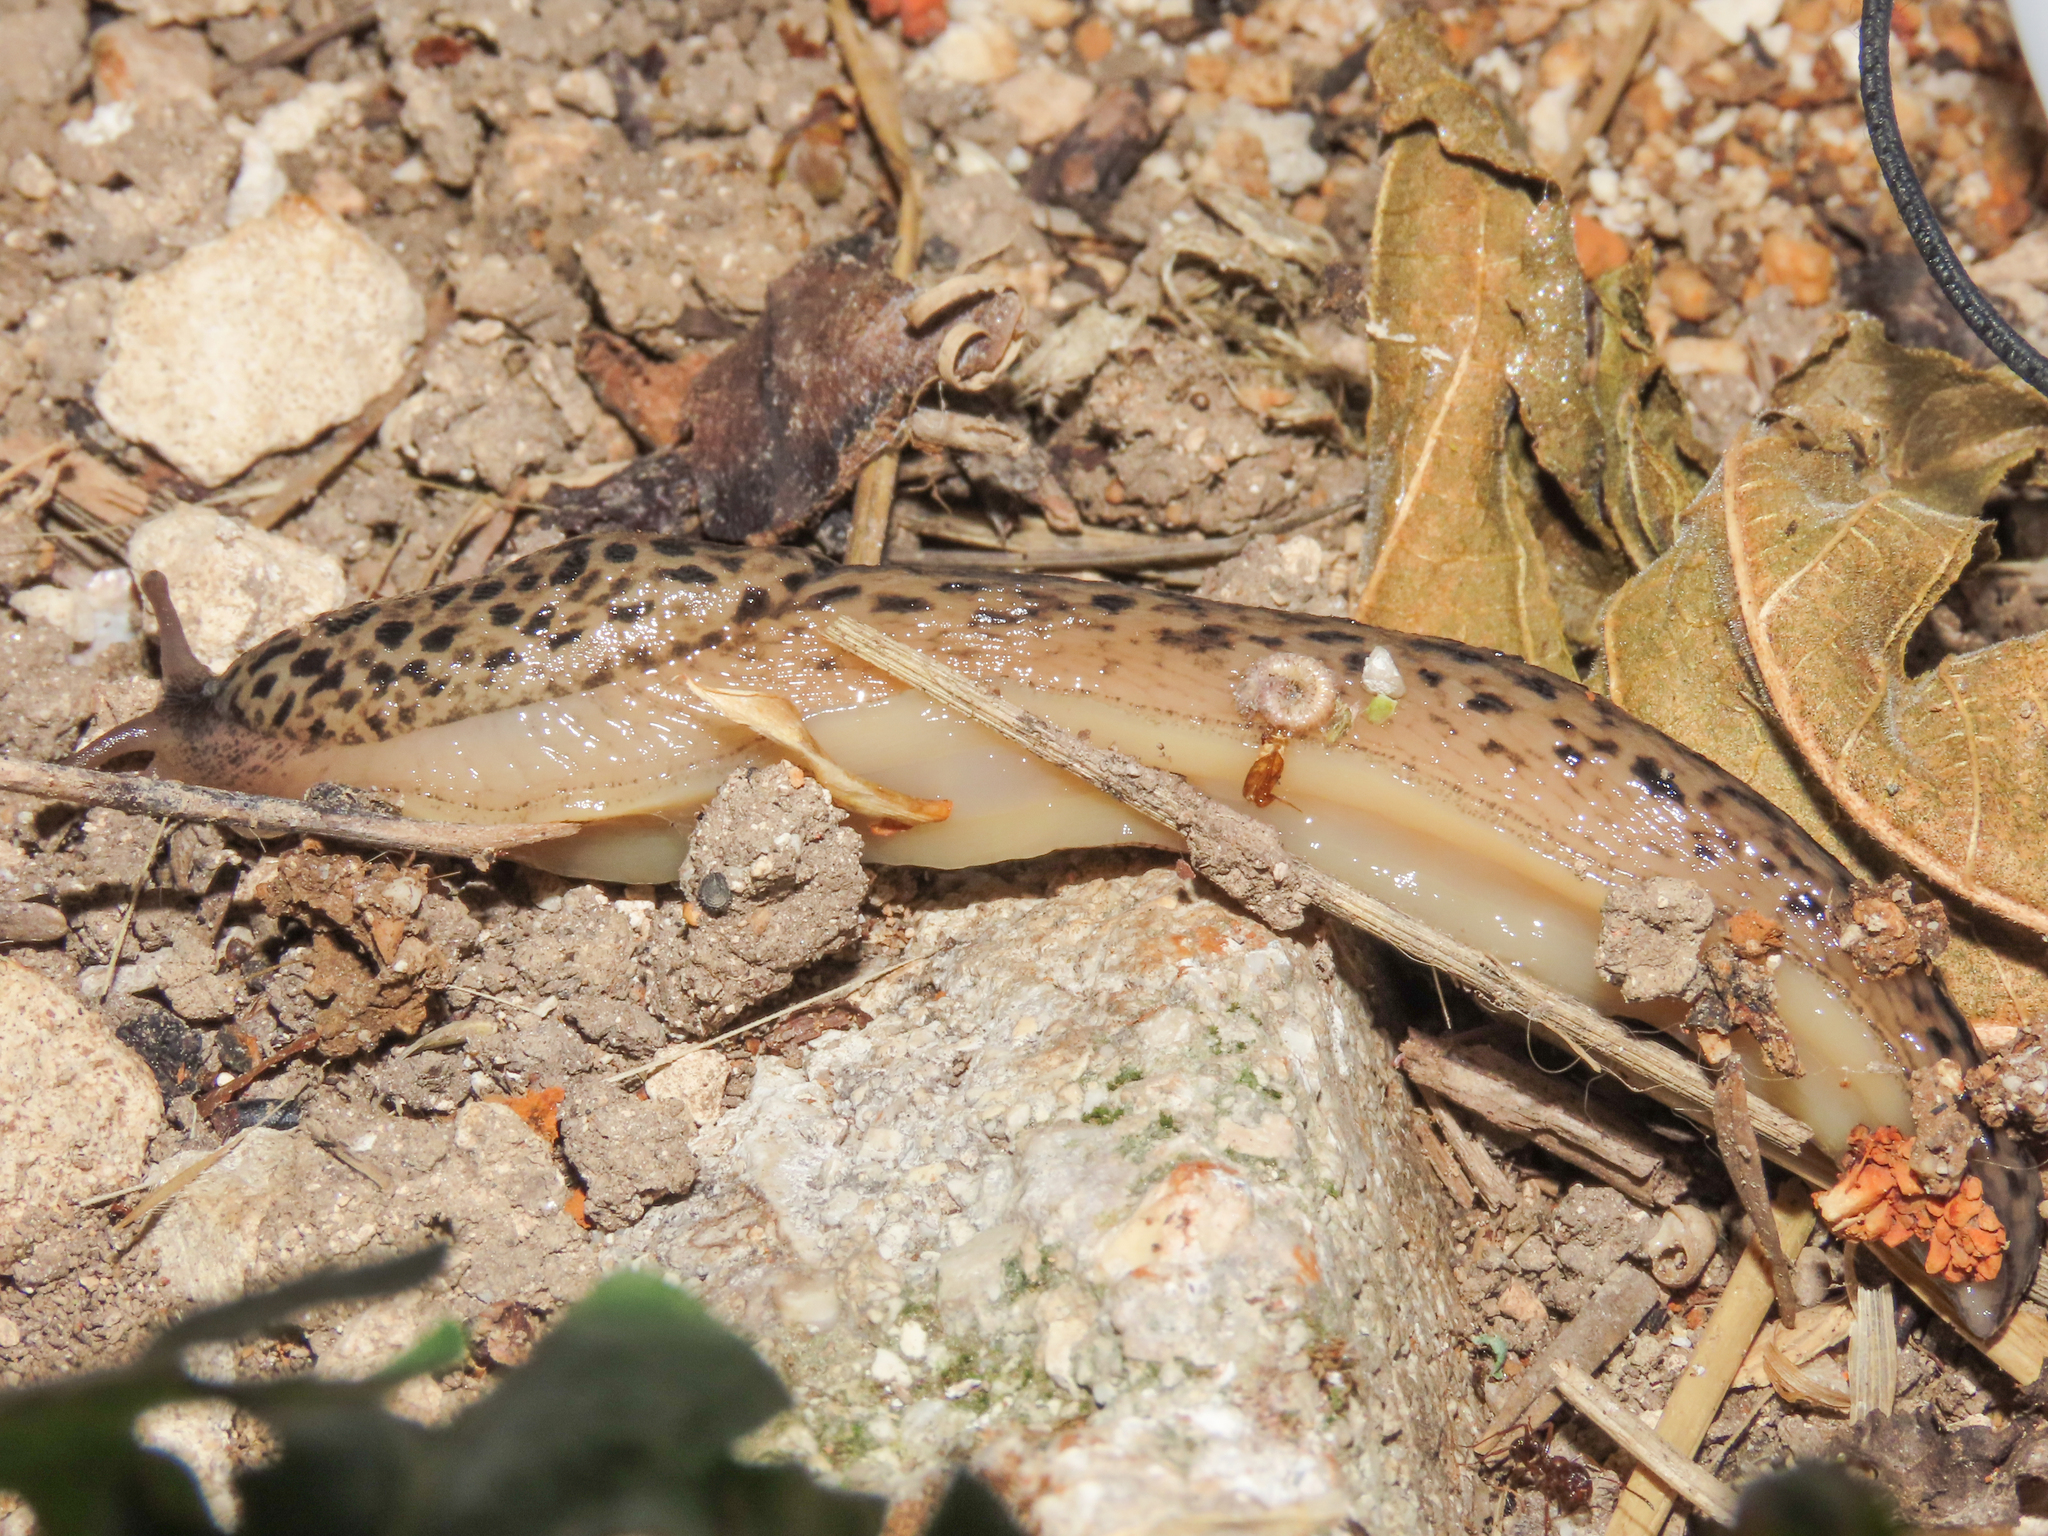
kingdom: Animalia
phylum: Mollusca
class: Gastropoda
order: Stylommatophora
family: Limacidae
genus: Limax
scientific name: Limax maximus
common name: Great grey slug
